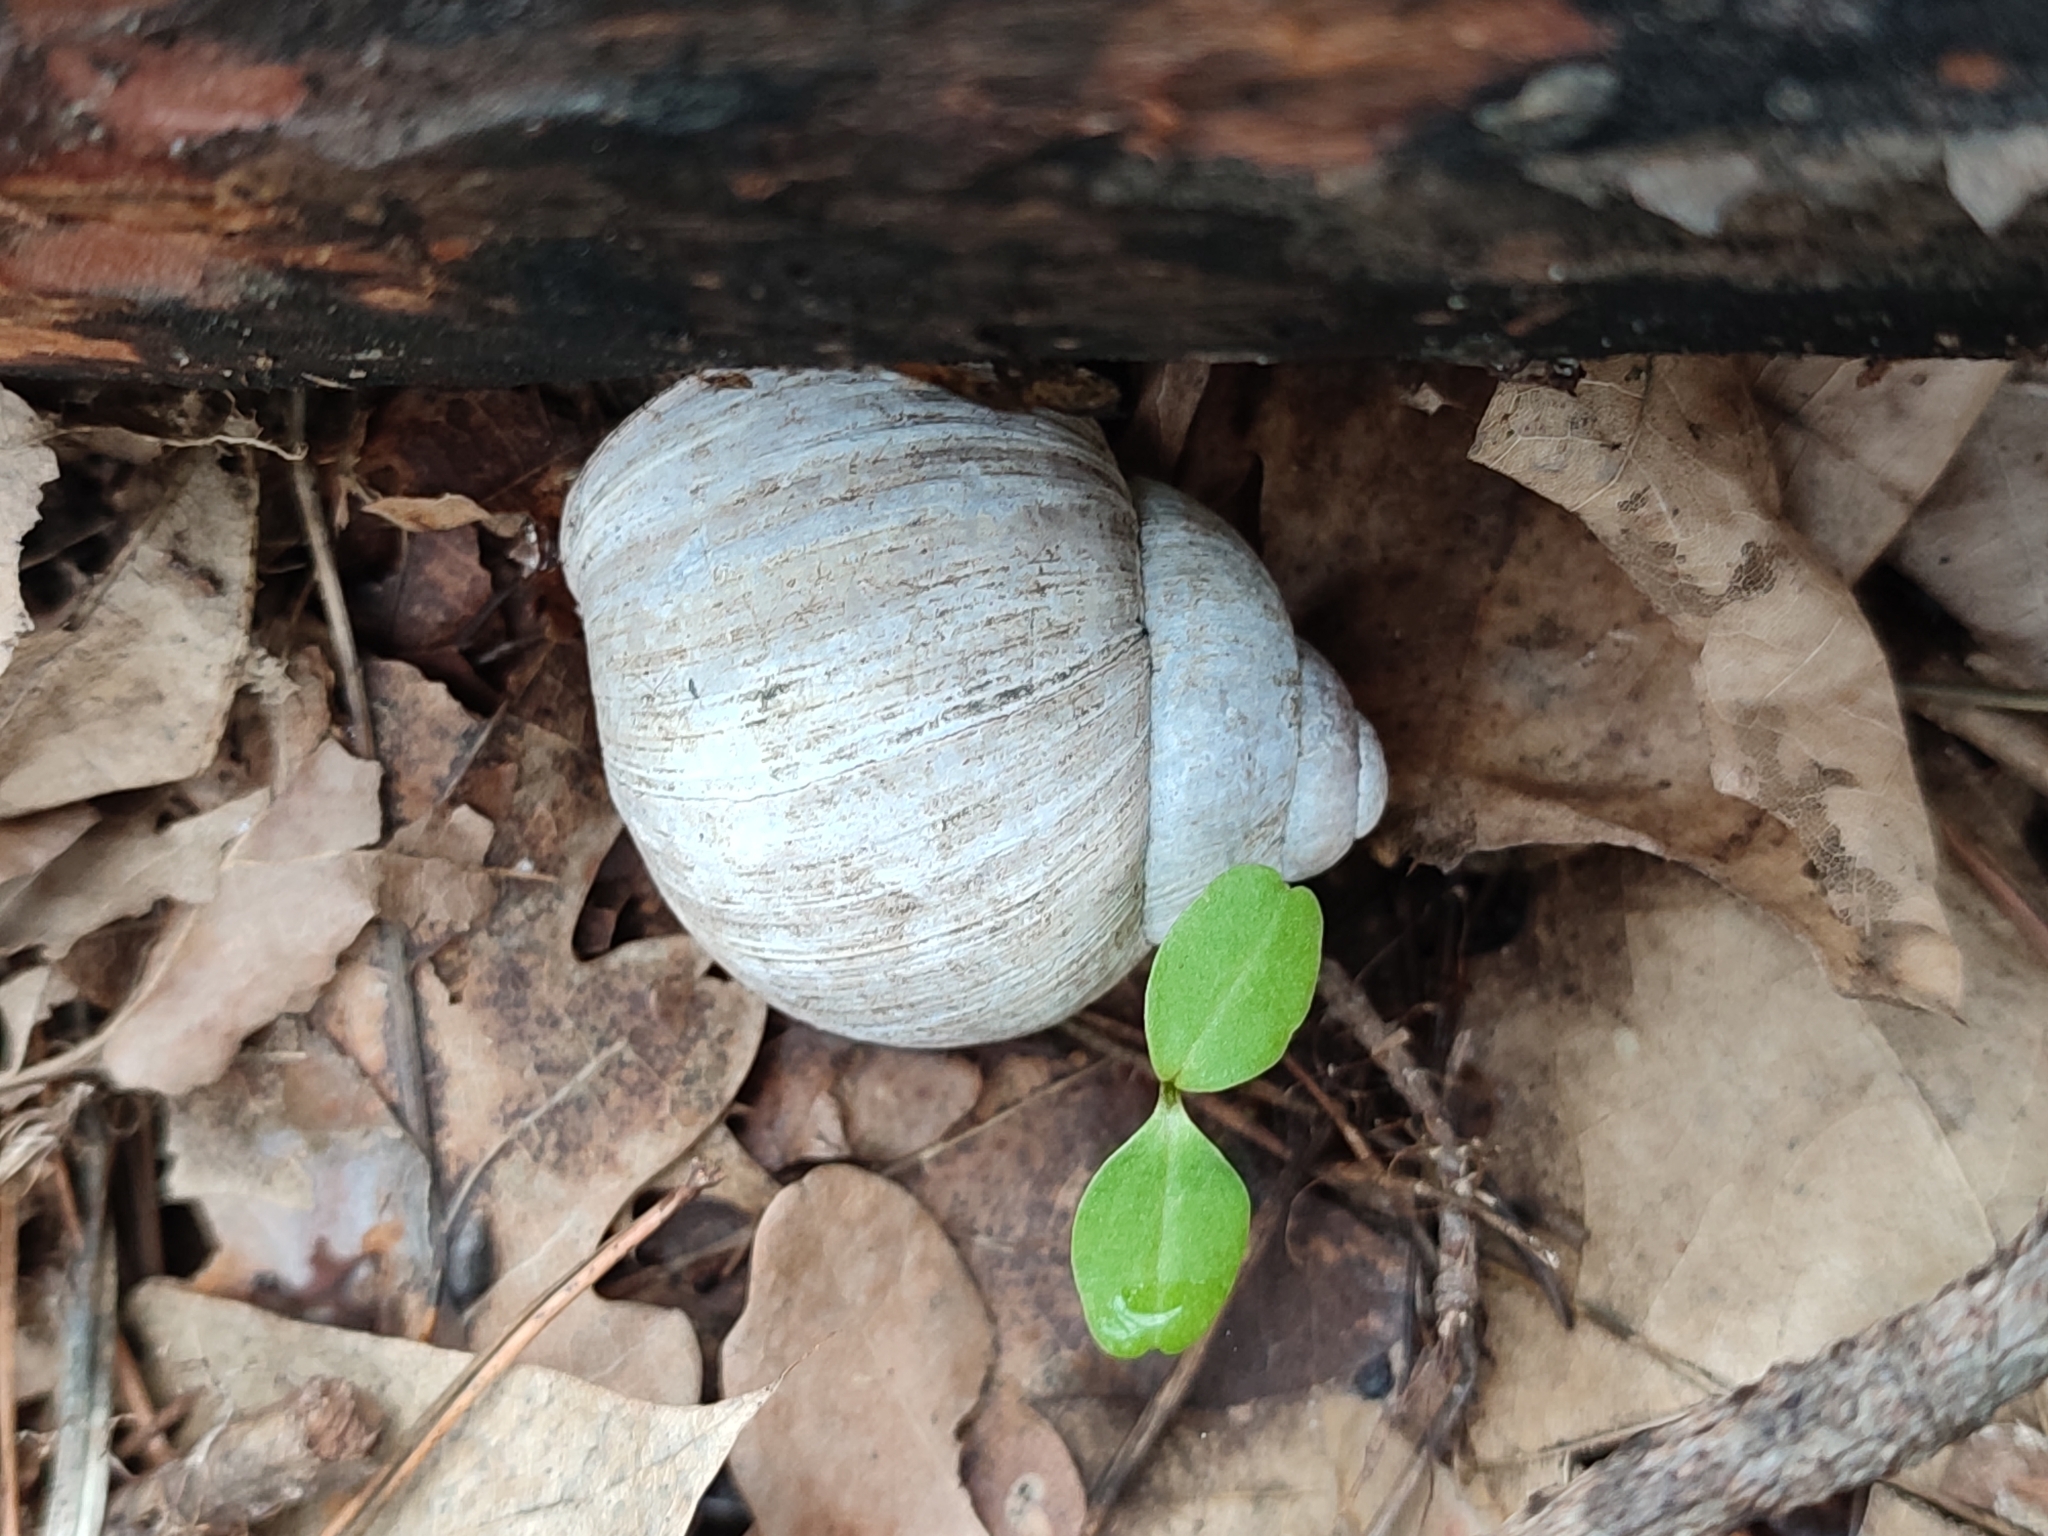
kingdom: Animalia
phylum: Mollusca
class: Gastropoda
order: Stylommatophora
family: Helicidae
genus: Helix
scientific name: Helix pomatia
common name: Roman snail
